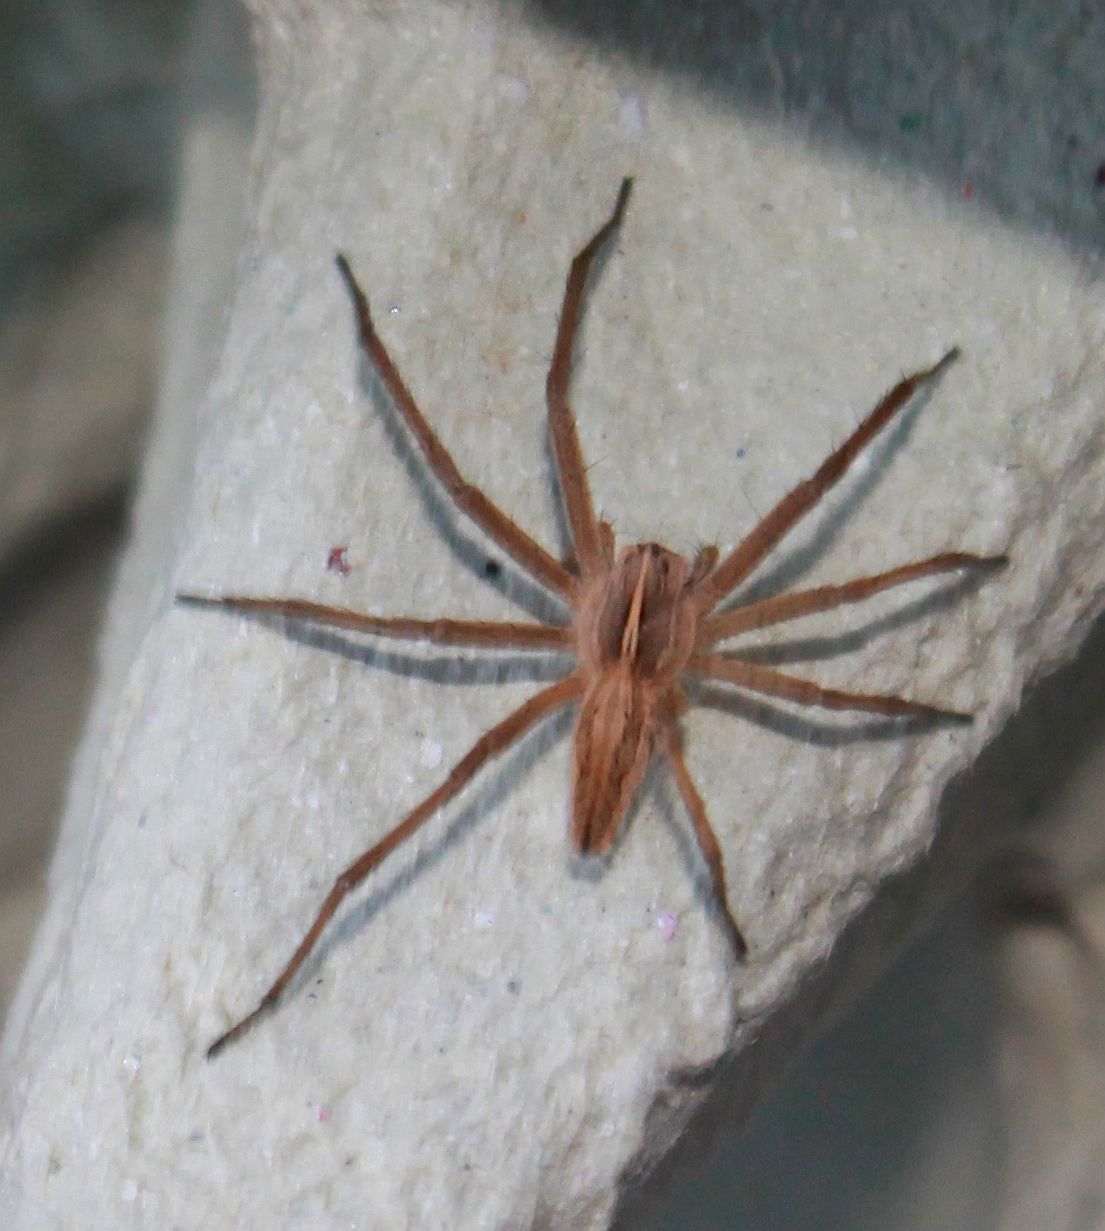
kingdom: Animalia
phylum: Arthropoda
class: Arachnida
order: Araneae
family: Pisauridae
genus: Pisaura
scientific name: Pisaura mirabilis
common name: Tent spider
